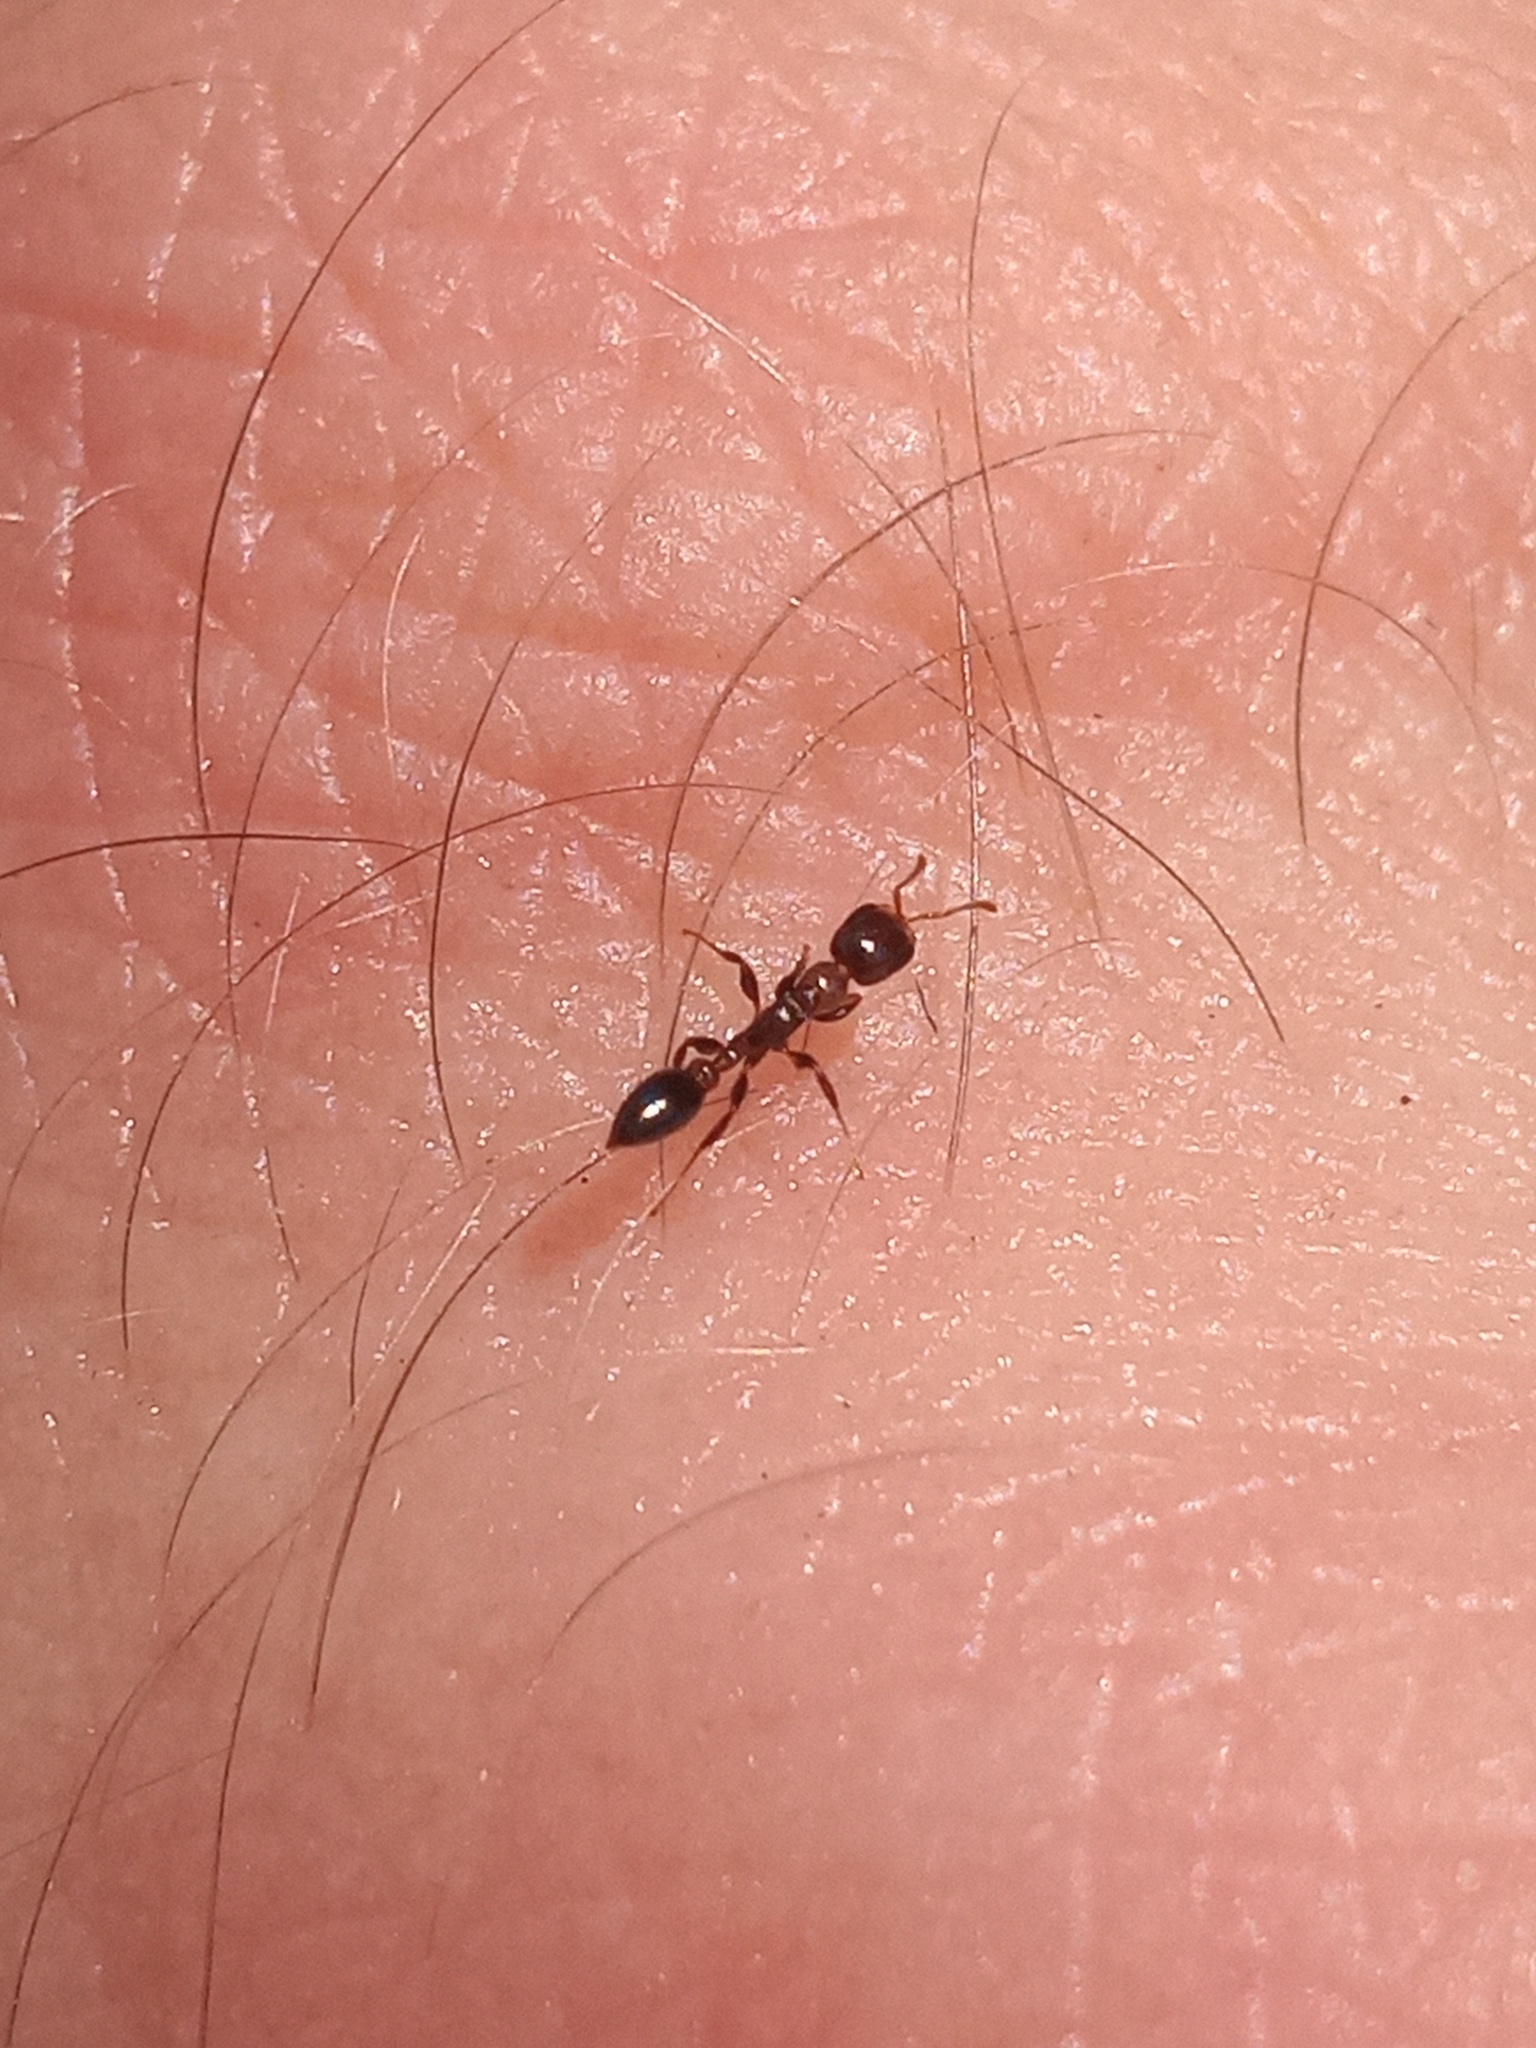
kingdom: Animalia
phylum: Arthropoda
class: Insecta
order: Hymenoptera
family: Formicidae
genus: Pseudomyrmex
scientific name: Pseudomyrmex ejectus
